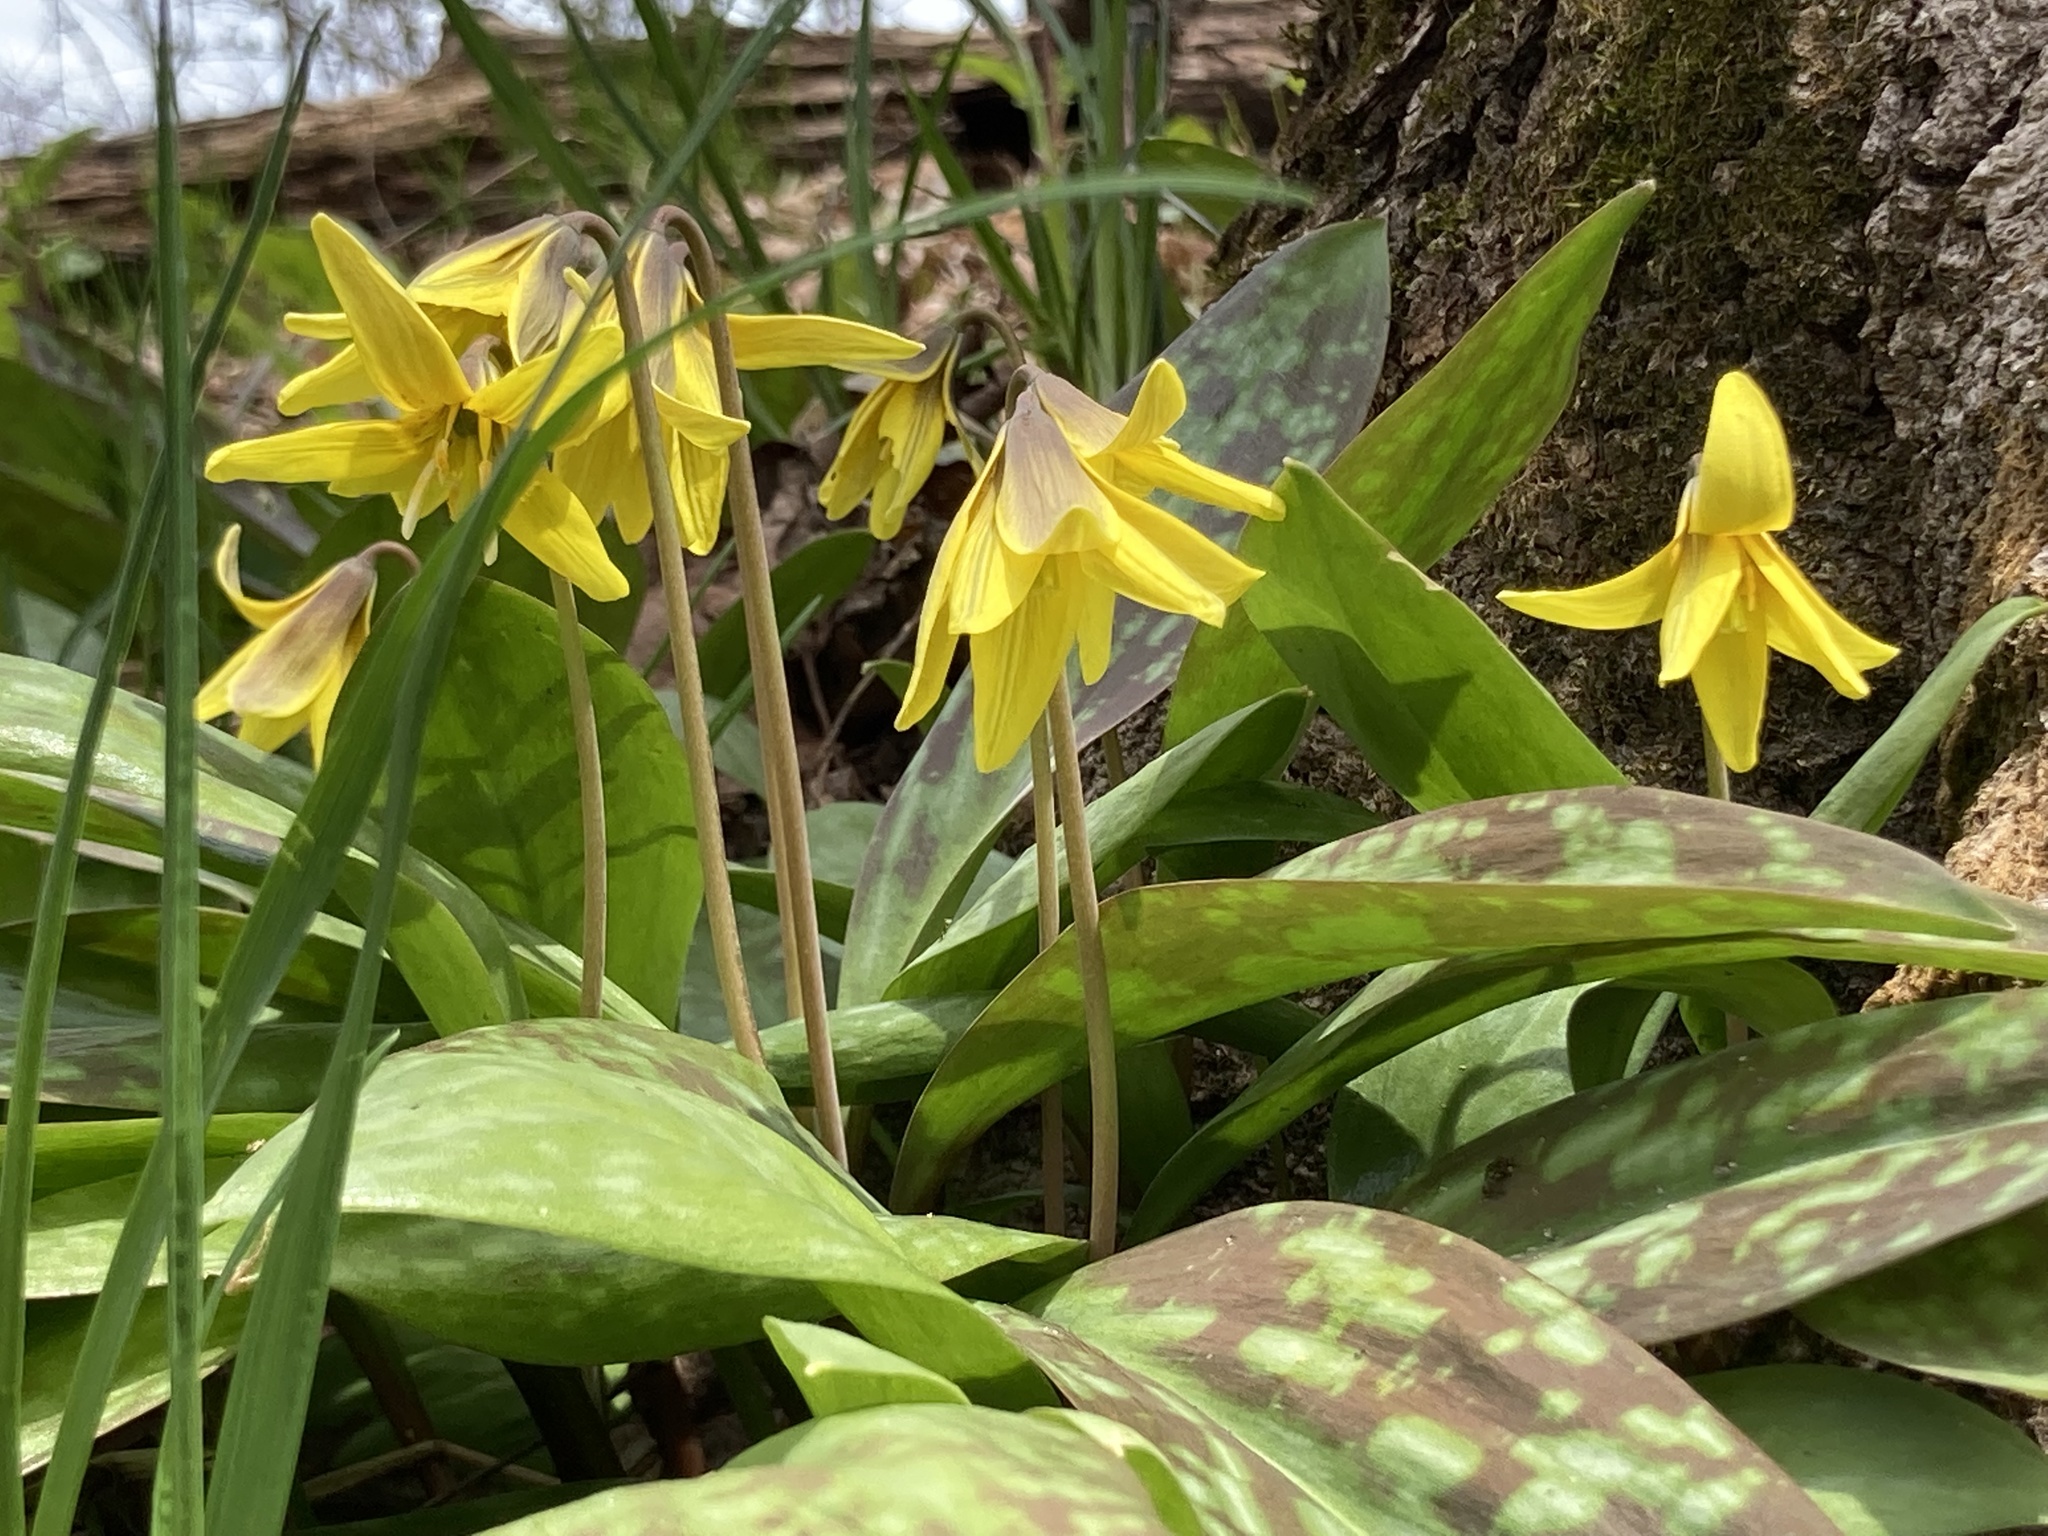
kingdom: Plantae
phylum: Tracheophyta
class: Liliopsida
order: Liliales
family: Liliaceae
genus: Erythronium
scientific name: Erythronium americanum
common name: Yellow adder's-tongue
